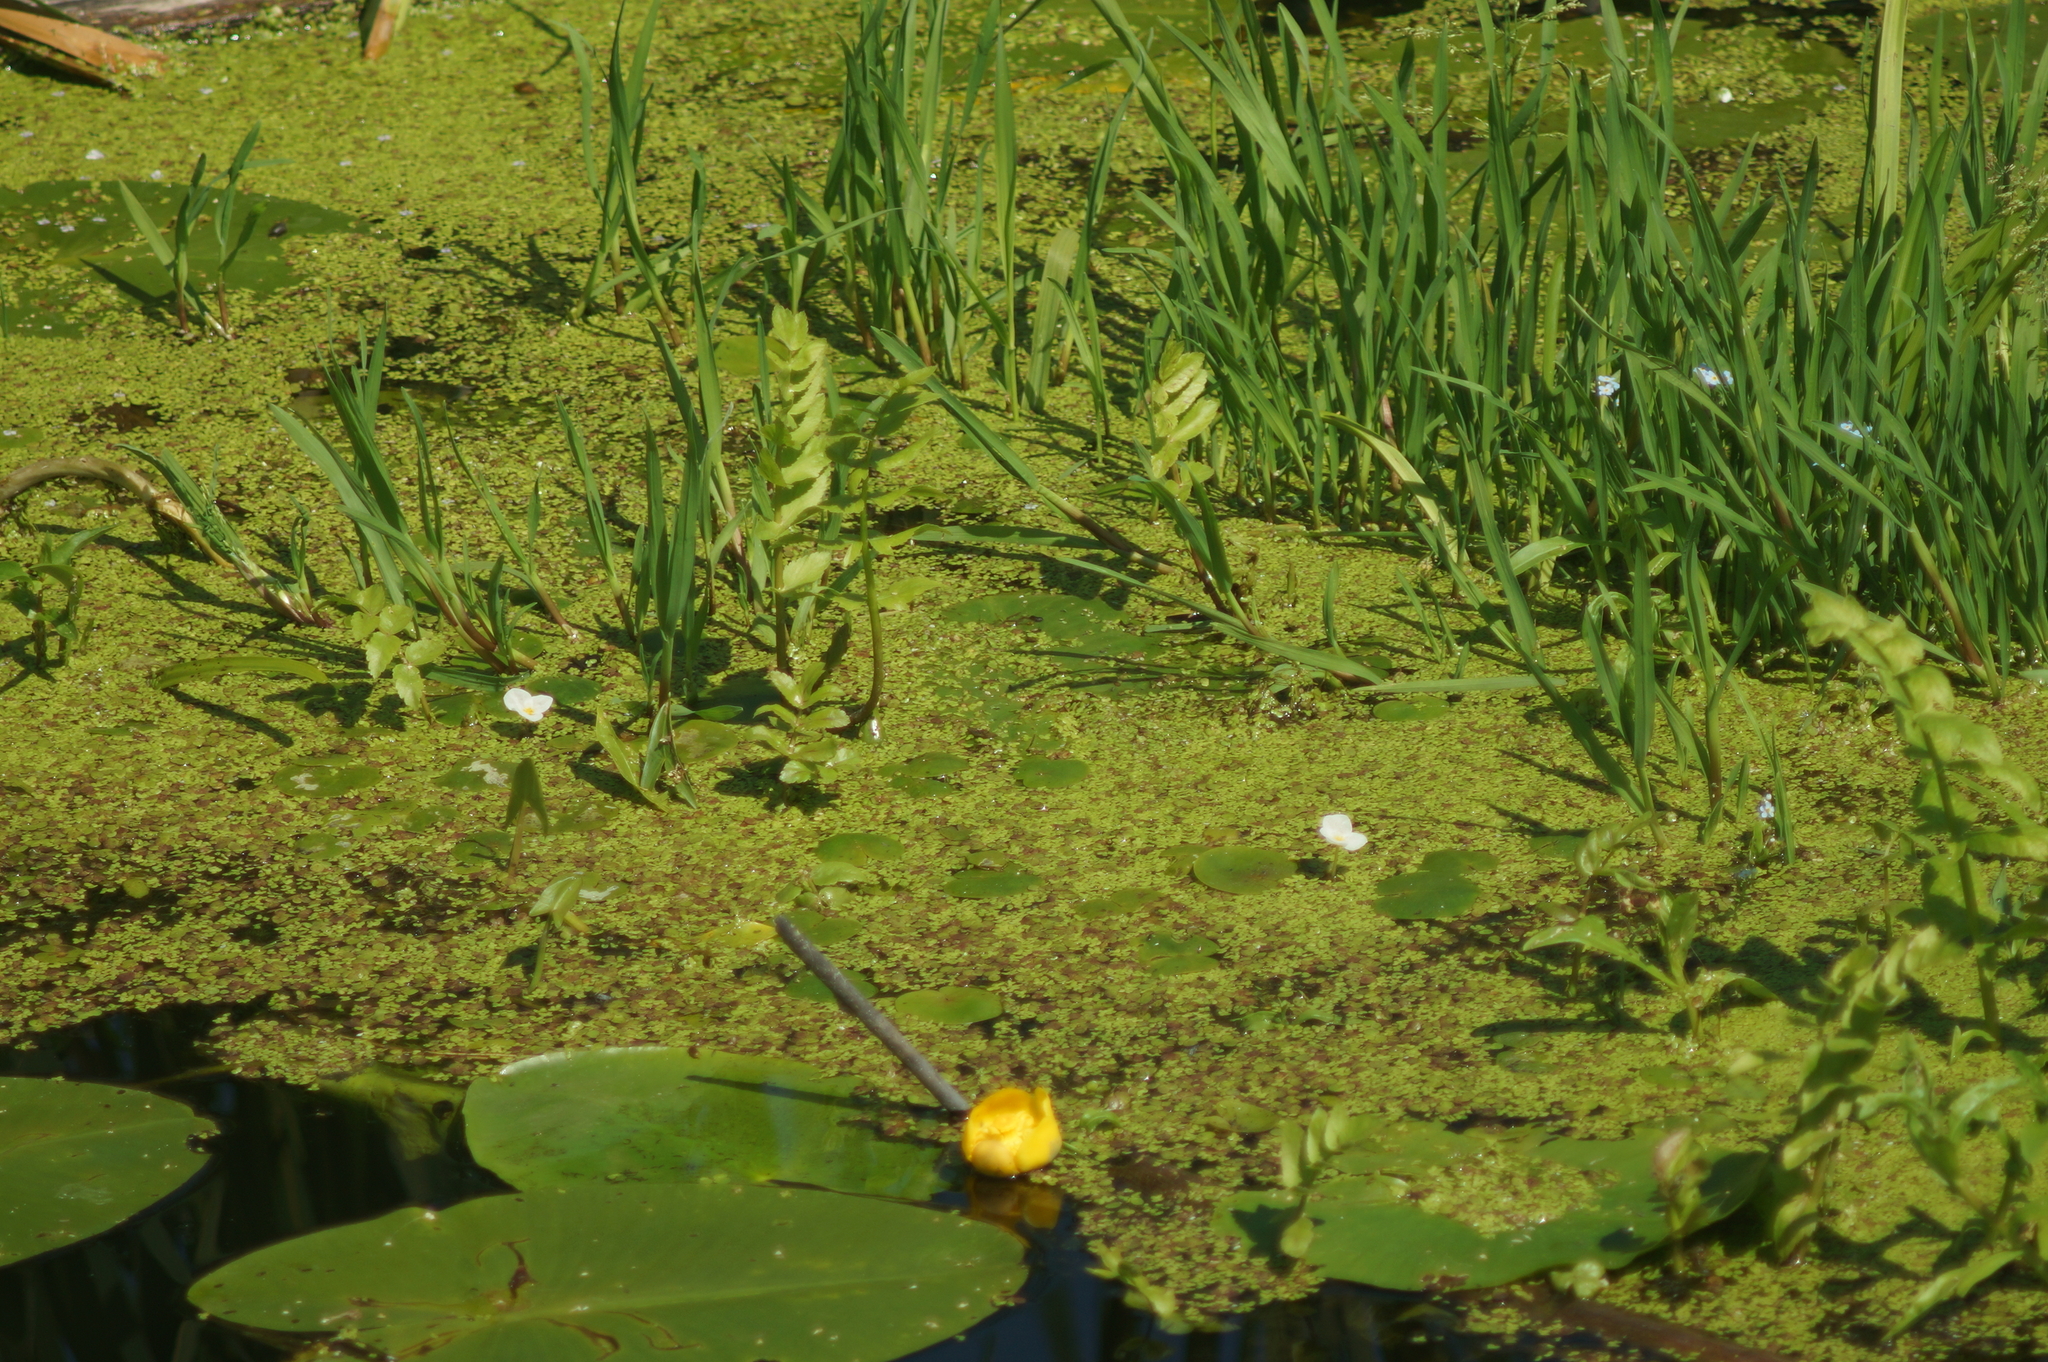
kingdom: Plantae
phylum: Tracheophyta
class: Liliopsida
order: Alismatales
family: Hydrocharitaceae
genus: Hydrocharis
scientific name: Hydrocharis morsus-ranae
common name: Frogbit
